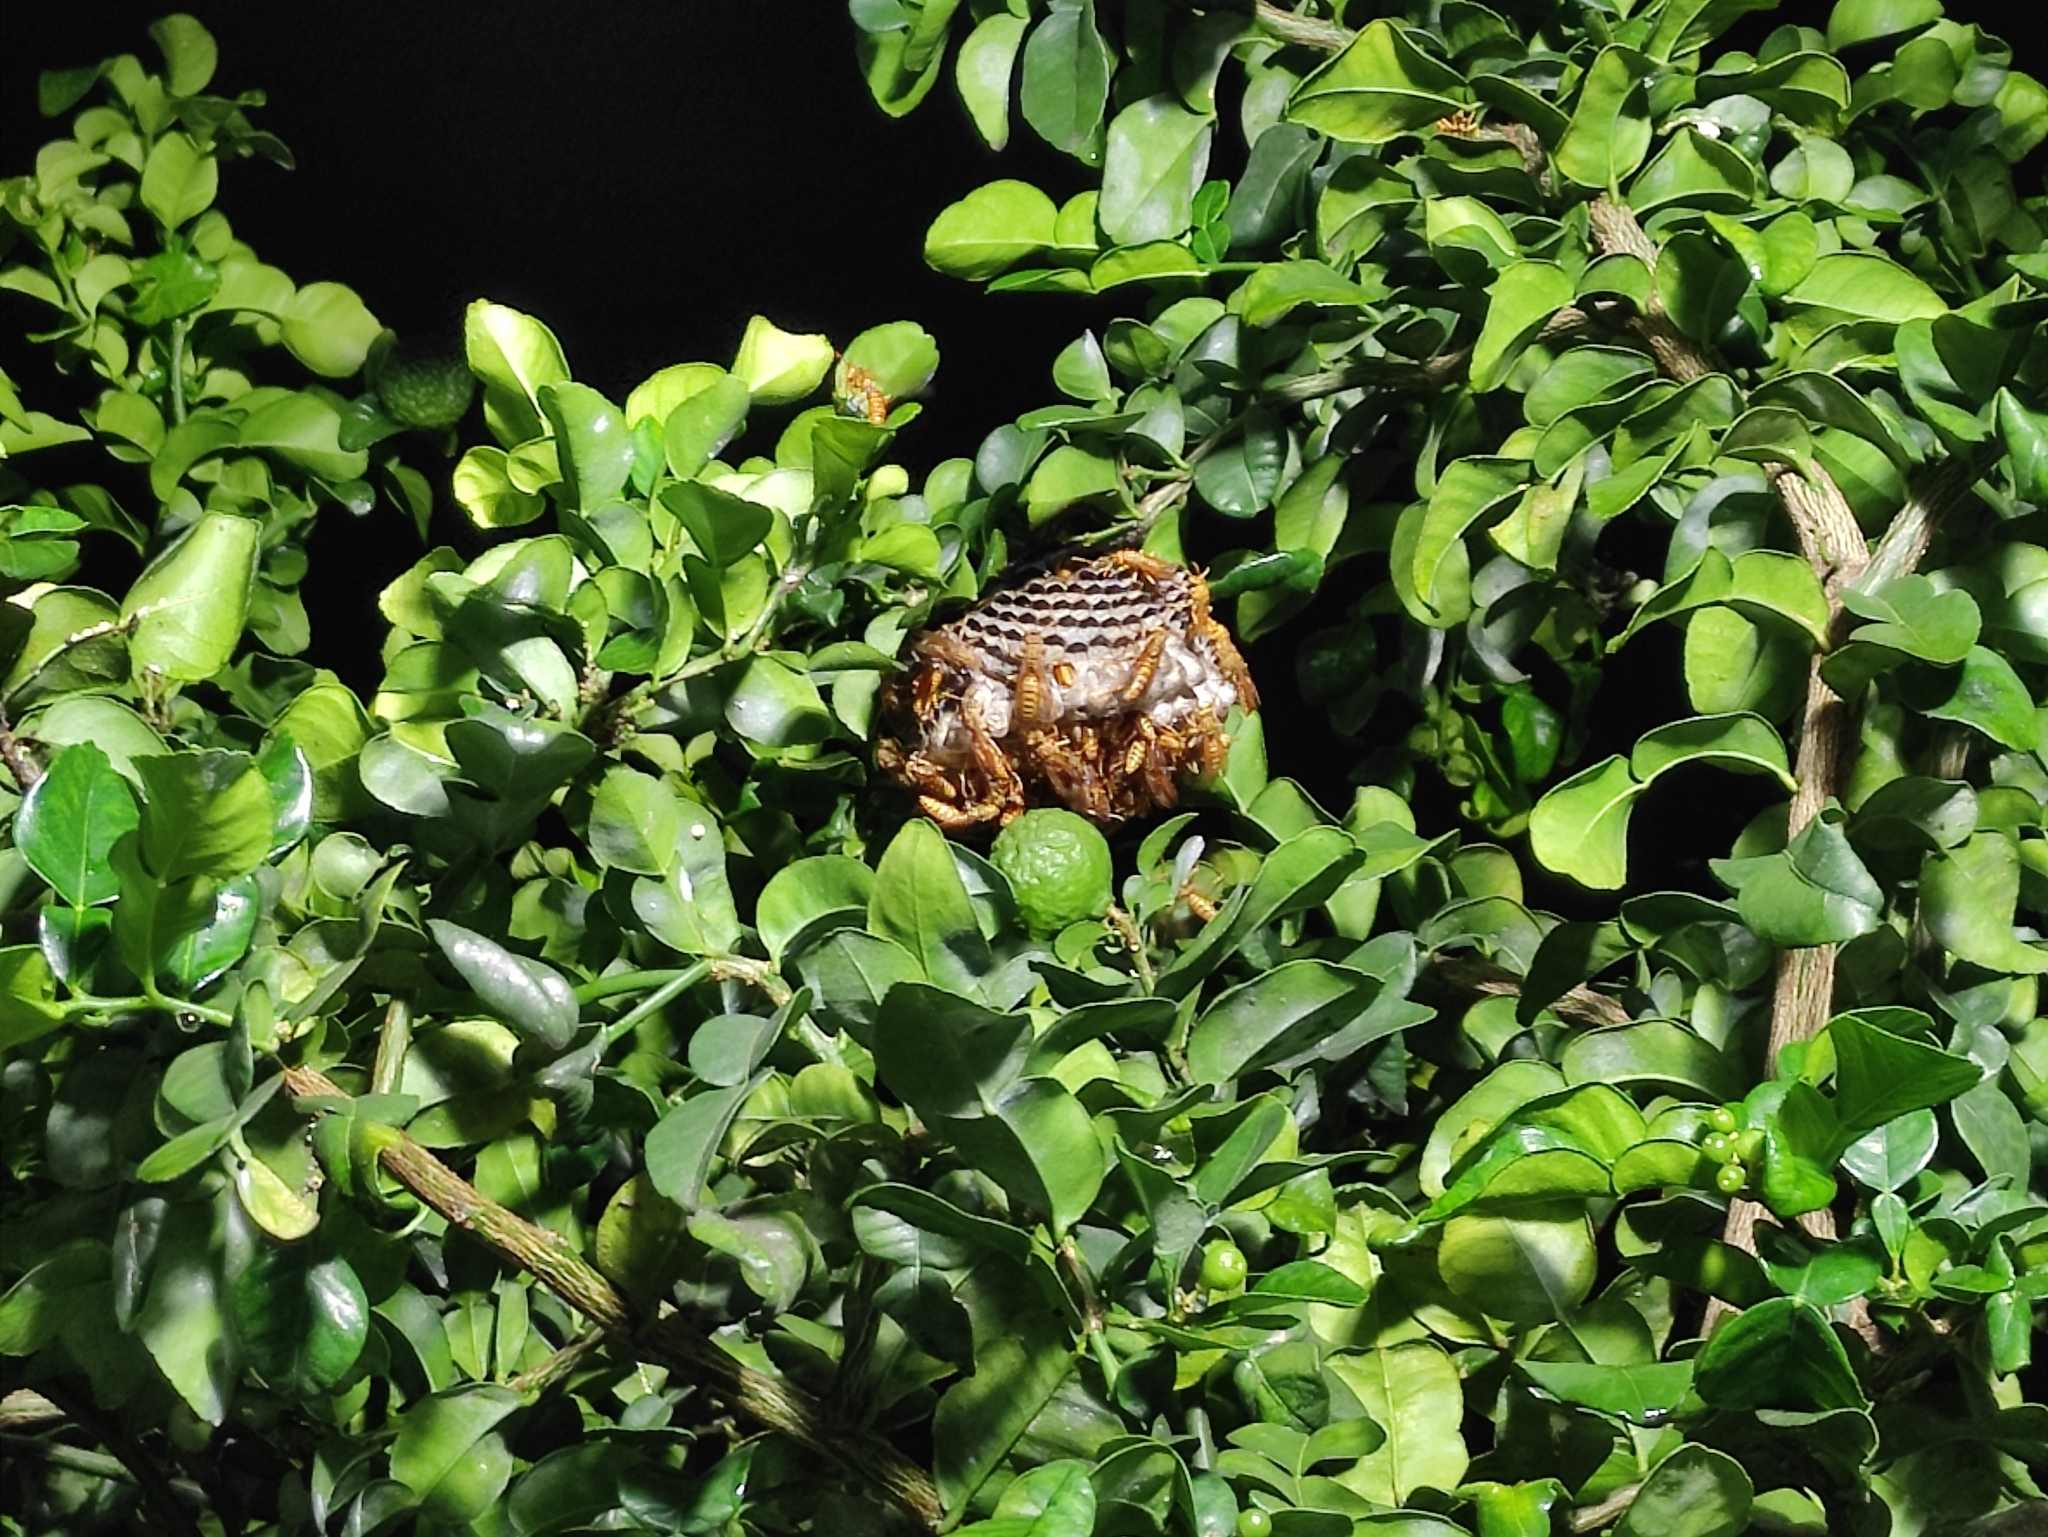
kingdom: Animalia
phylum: Arthropoda
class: Insecta
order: Hymenoptera
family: Eumenidae
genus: Polistes
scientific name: Polistes olivaceus
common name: Paper wasp
